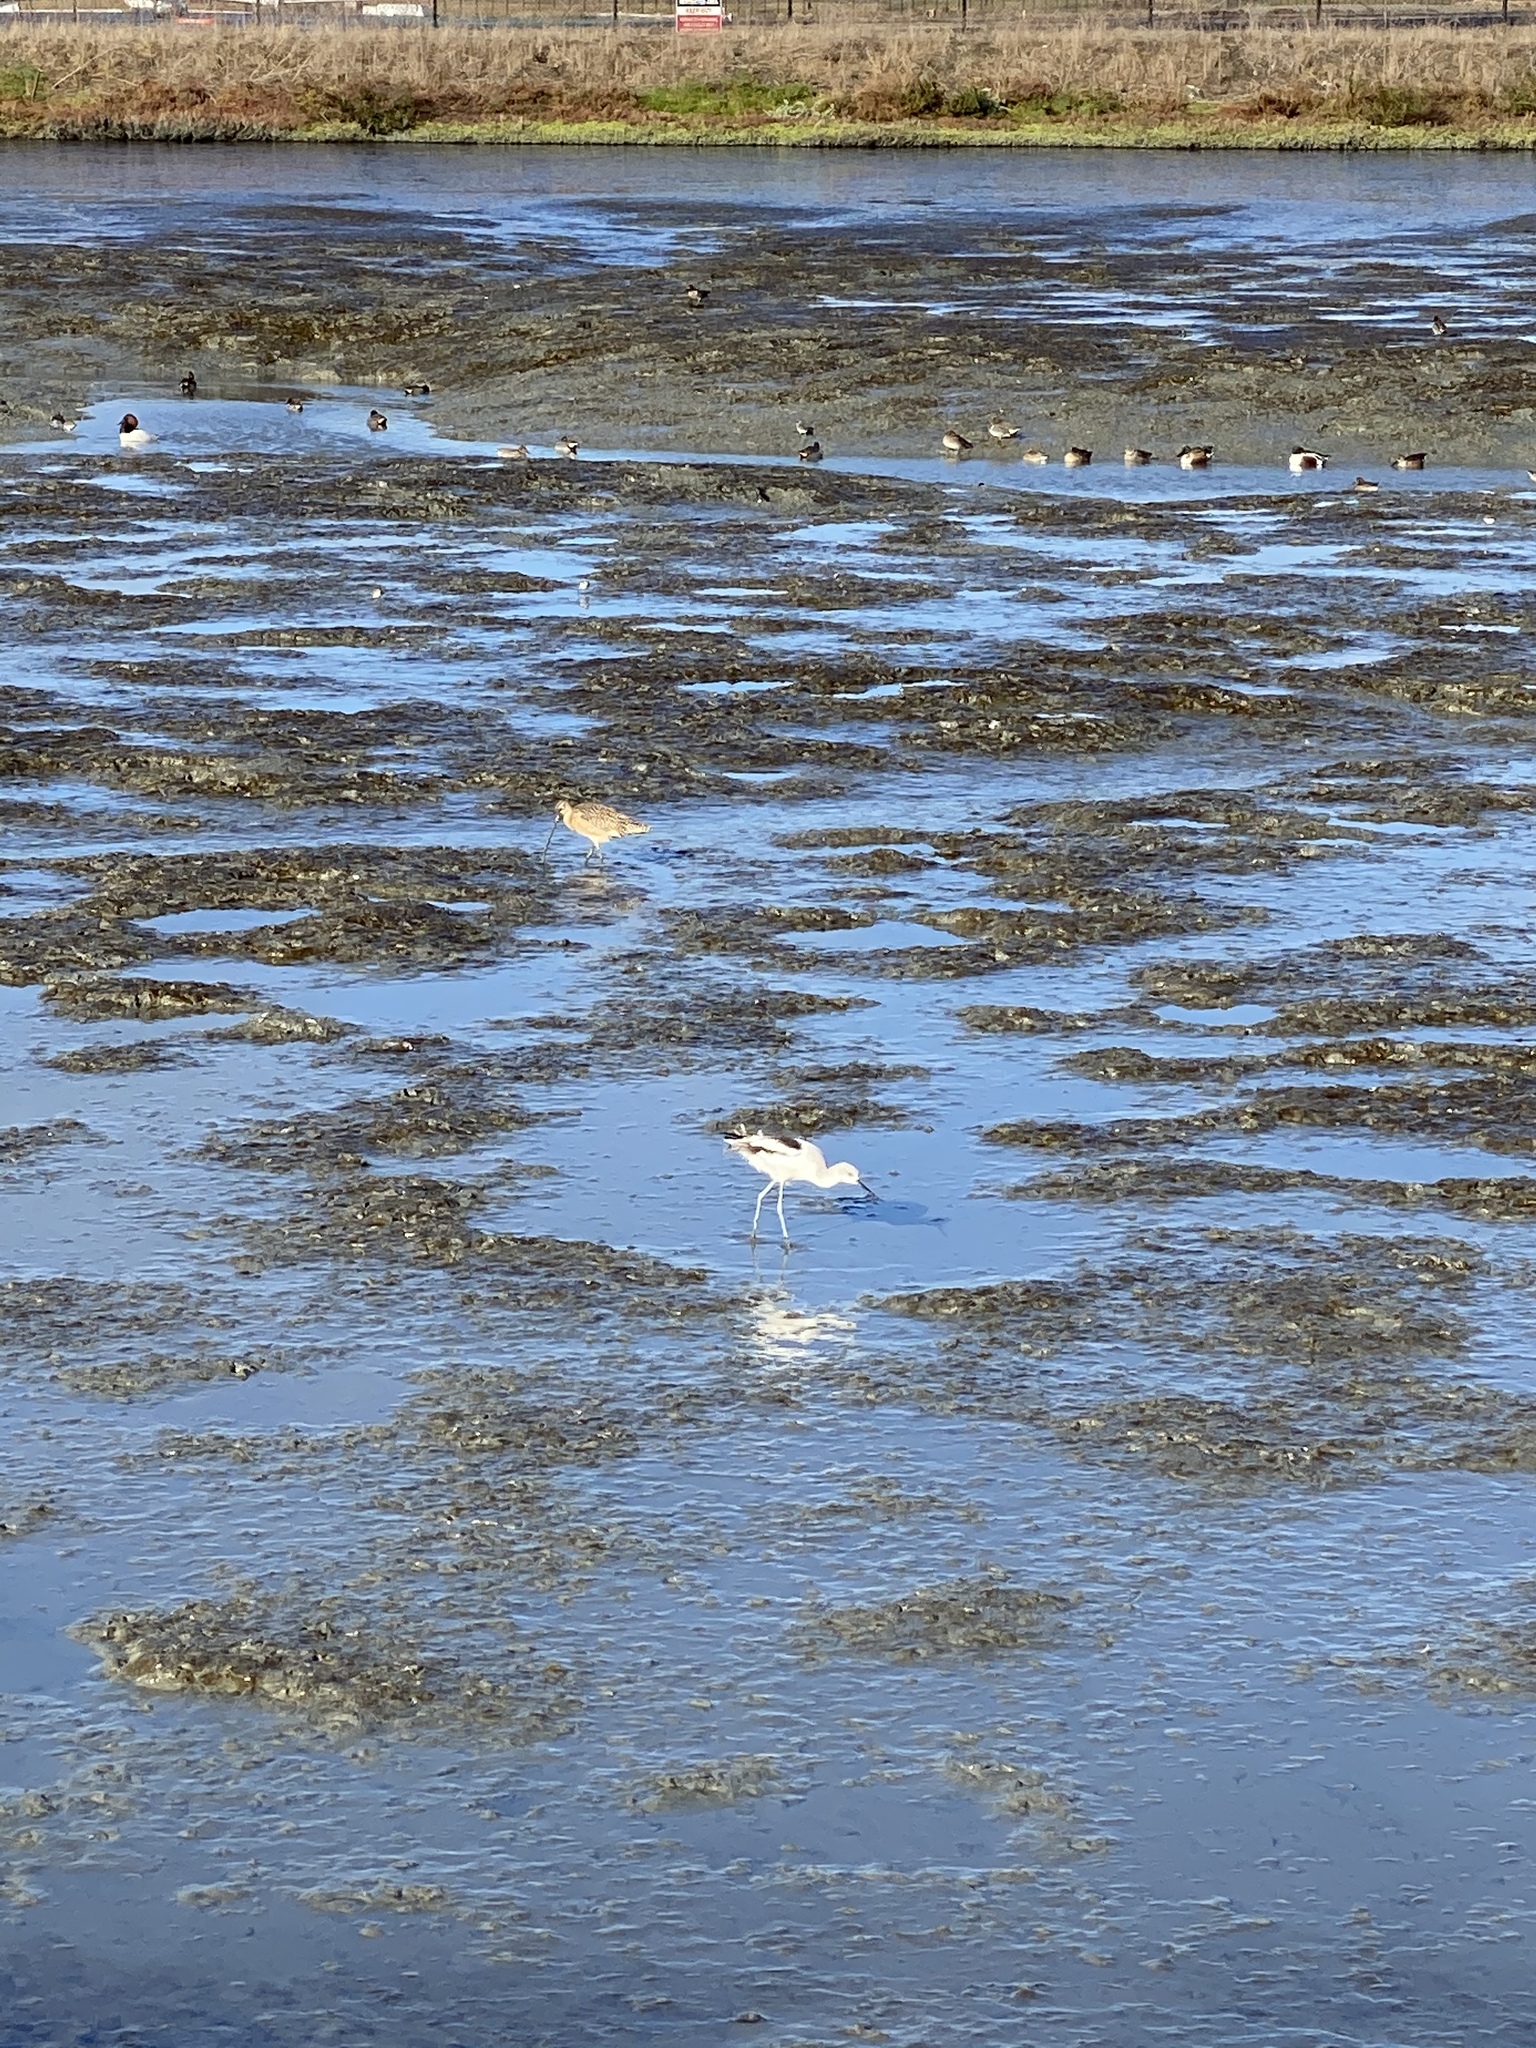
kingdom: Animalia
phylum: Chordata
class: Aves
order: Charadriiformes
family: Recurvirostridae
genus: Recurvirostra
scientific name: Recurvirostra americana
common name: American avocet
